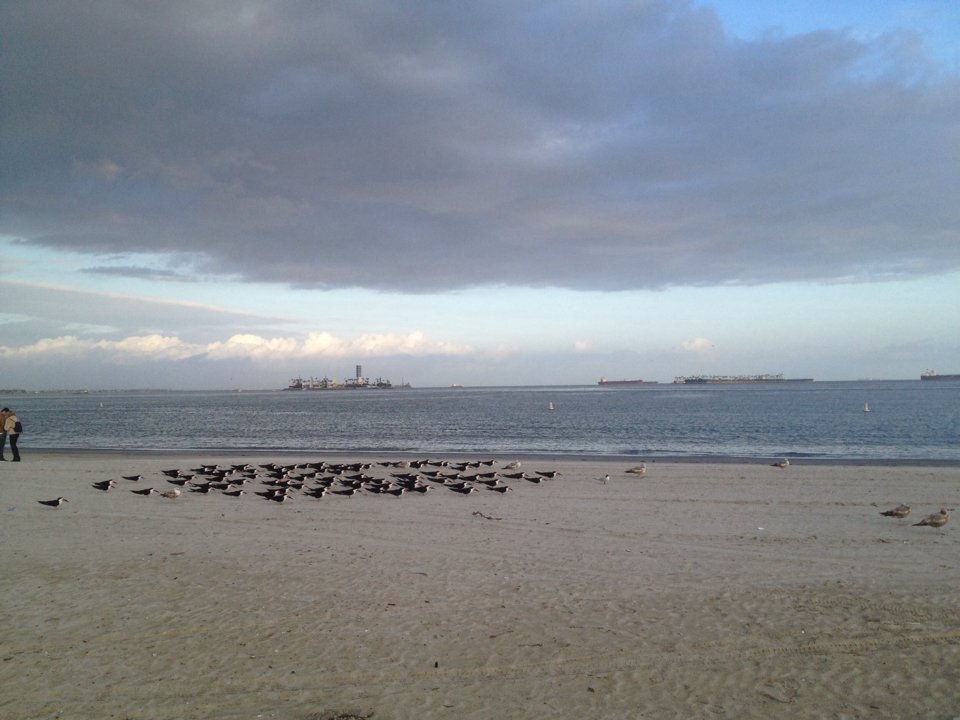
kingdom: Animalia
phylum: Chordata
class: Aves
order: Charadriiformes
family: Laridae
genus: Rynchops
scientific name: Rynchops niger
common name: Black skimmer
